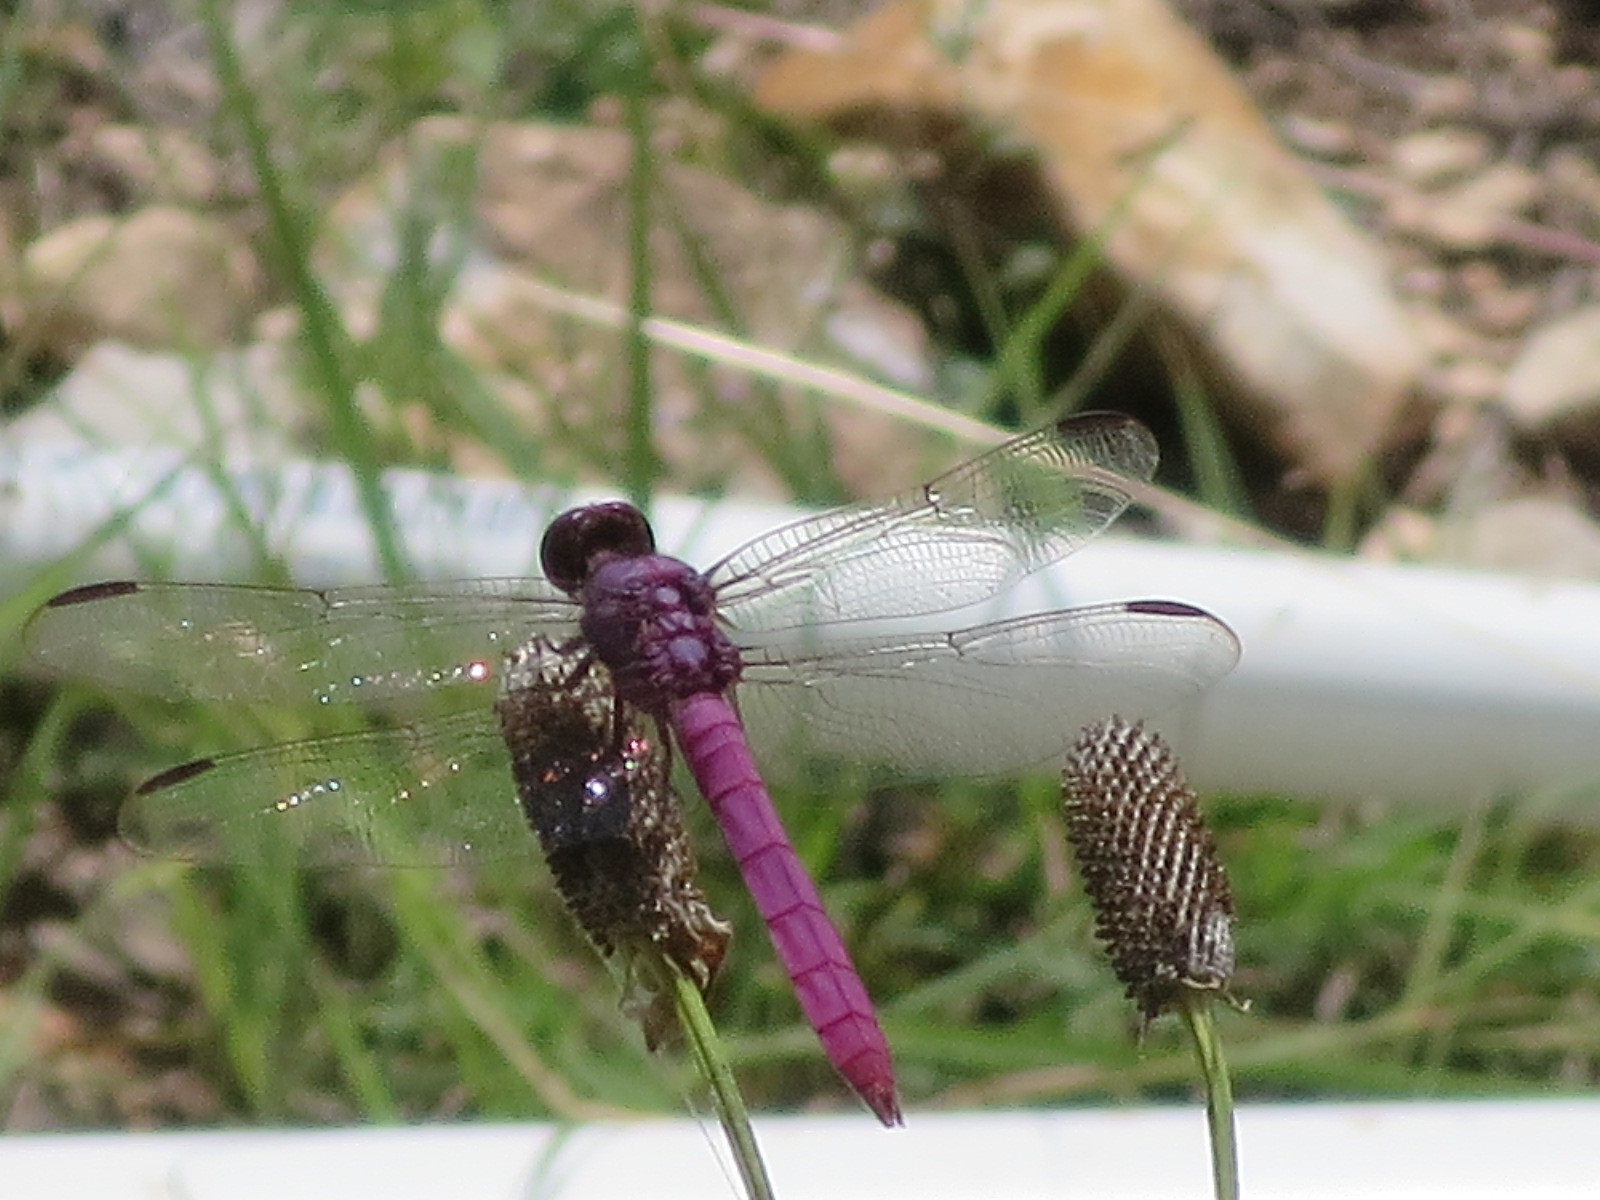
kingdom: Animalia
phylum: Arthropoda
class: Insecta
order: Odonata
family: Libellulidae
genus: Orthemis
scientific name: Orthemis ferruginea
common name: Roseate skimmer
